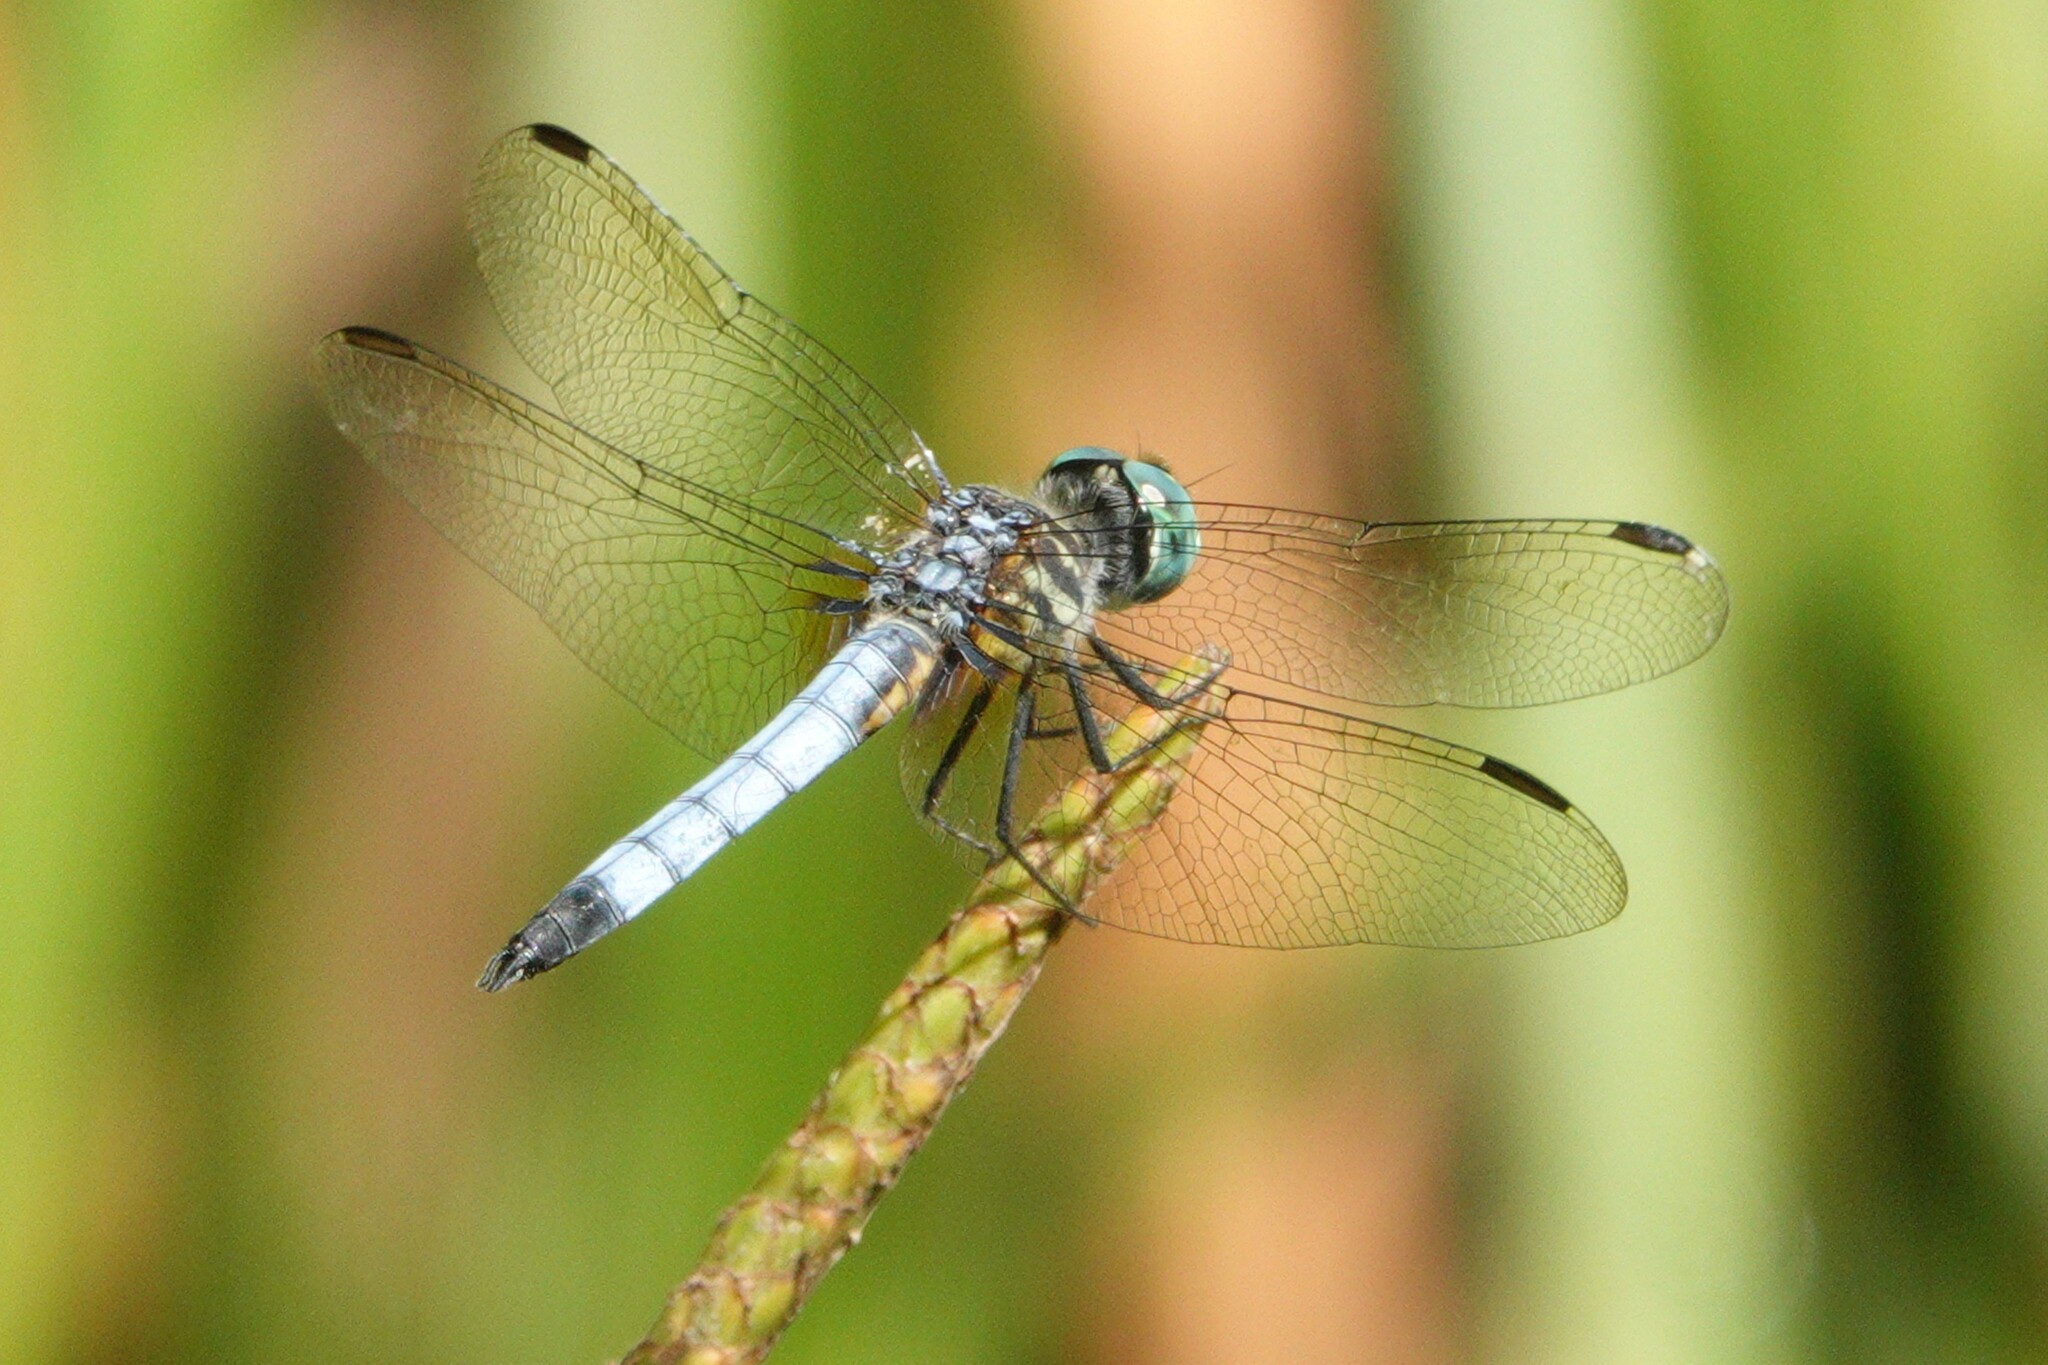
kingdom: Animalia
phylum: Arthropoda
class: Insecta
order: Odonata
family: Libellulidae
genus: Pachydiplax
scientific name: Pachydiplax longipennis
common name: Blue dasher
